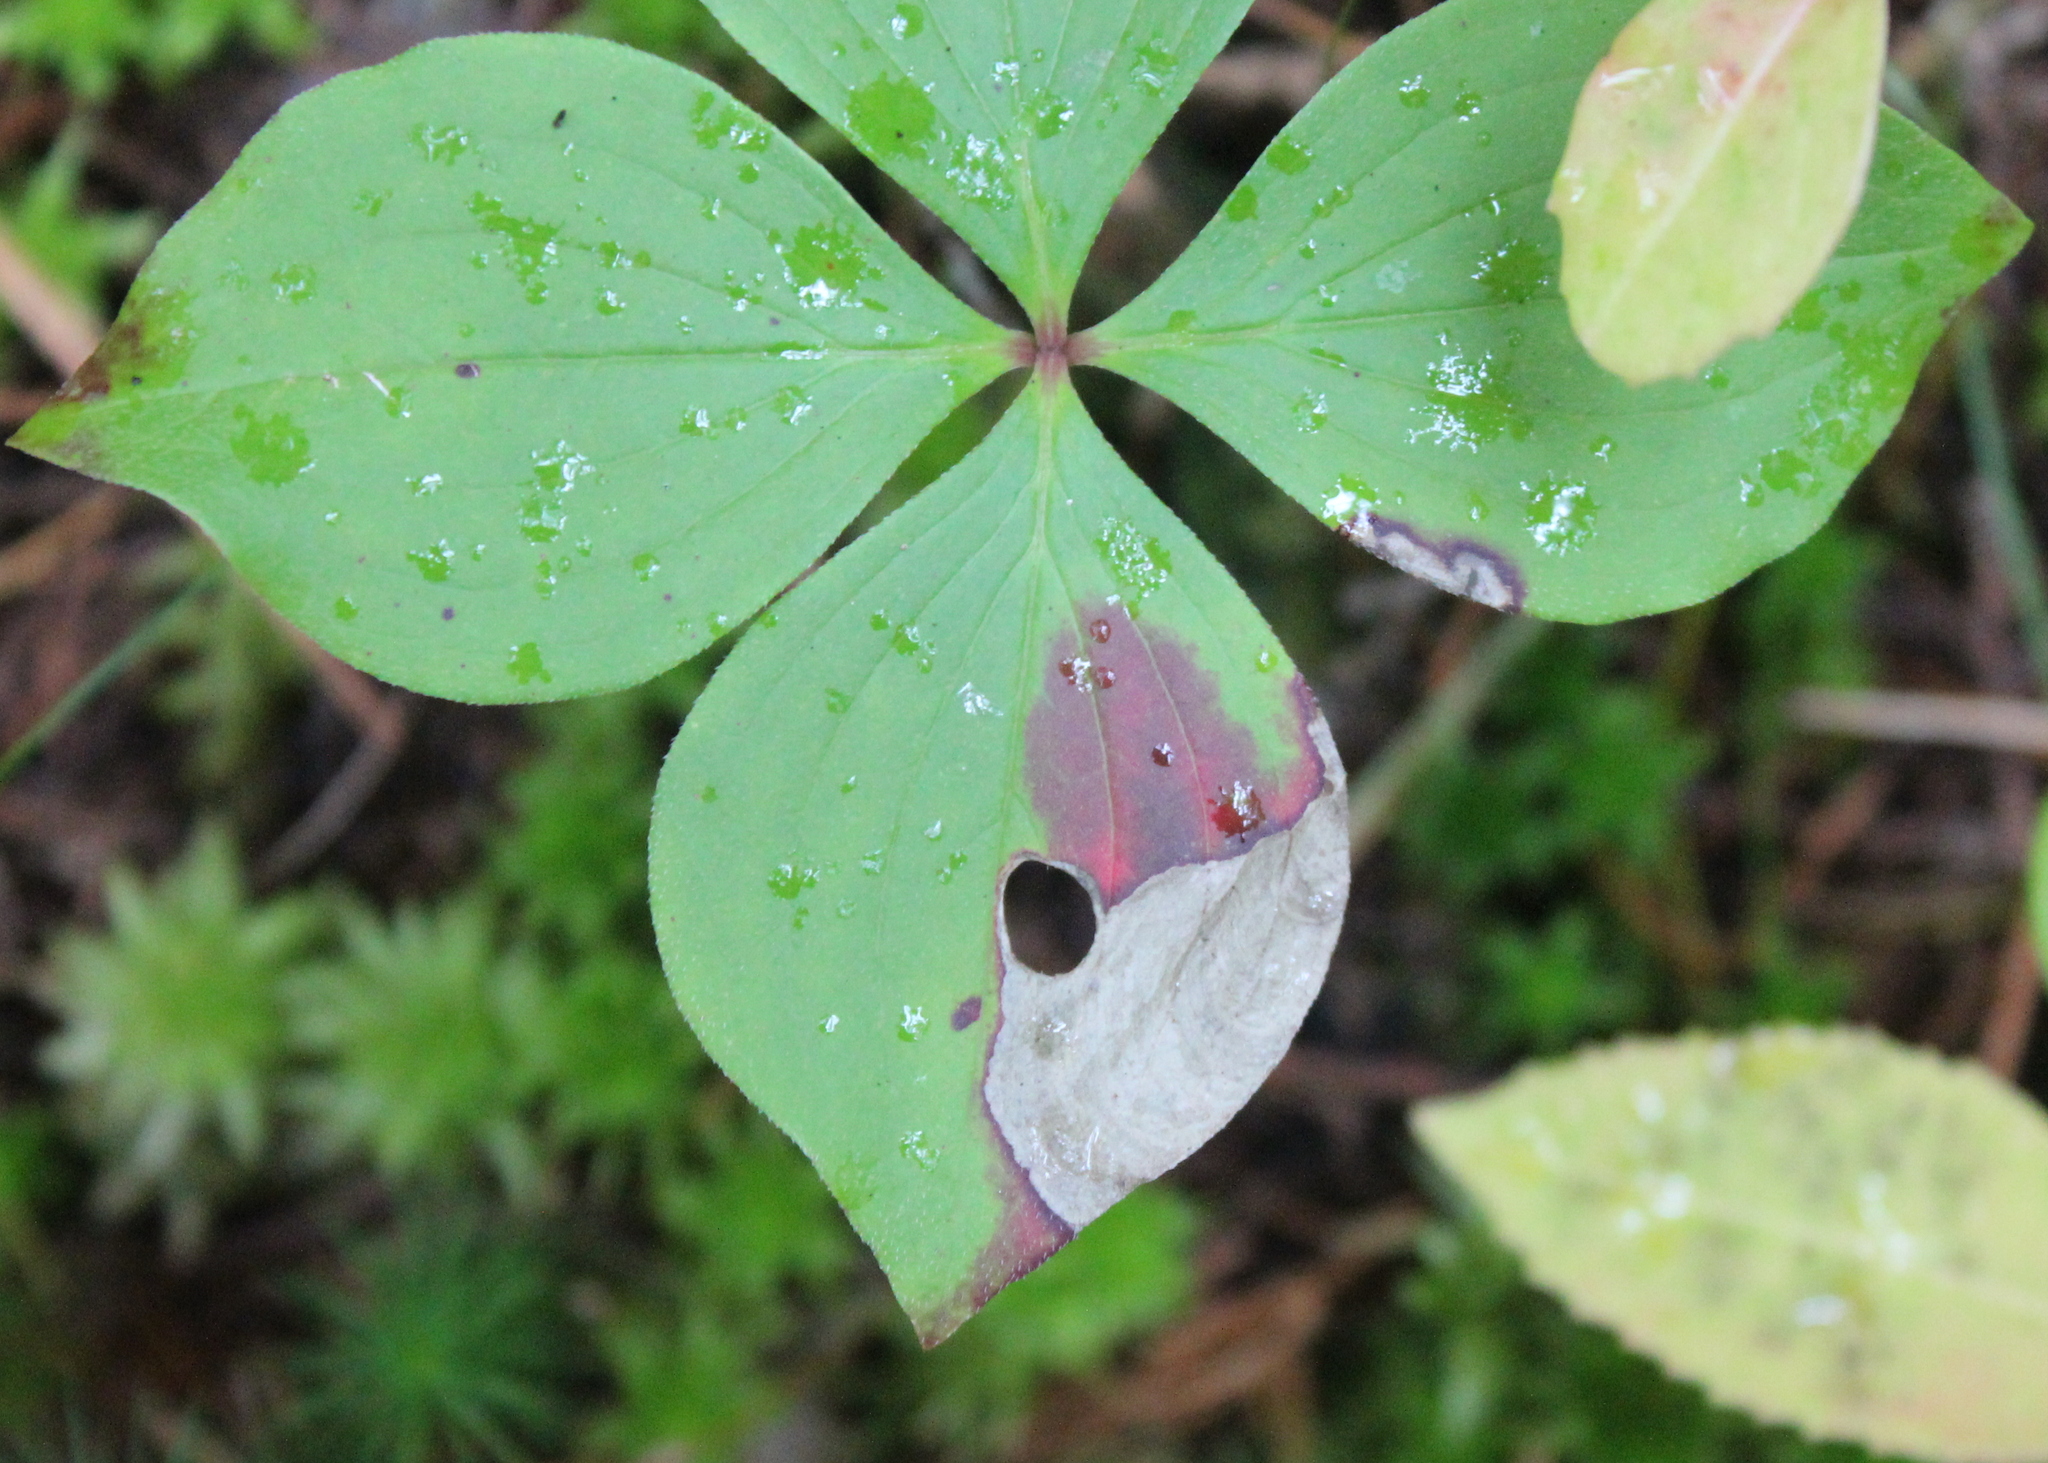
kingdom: Animalia
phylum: Arthropoda
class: Insecta
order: Lepidoptera
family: Heliozelidae
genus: Antispila
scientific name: Antispila freemani
